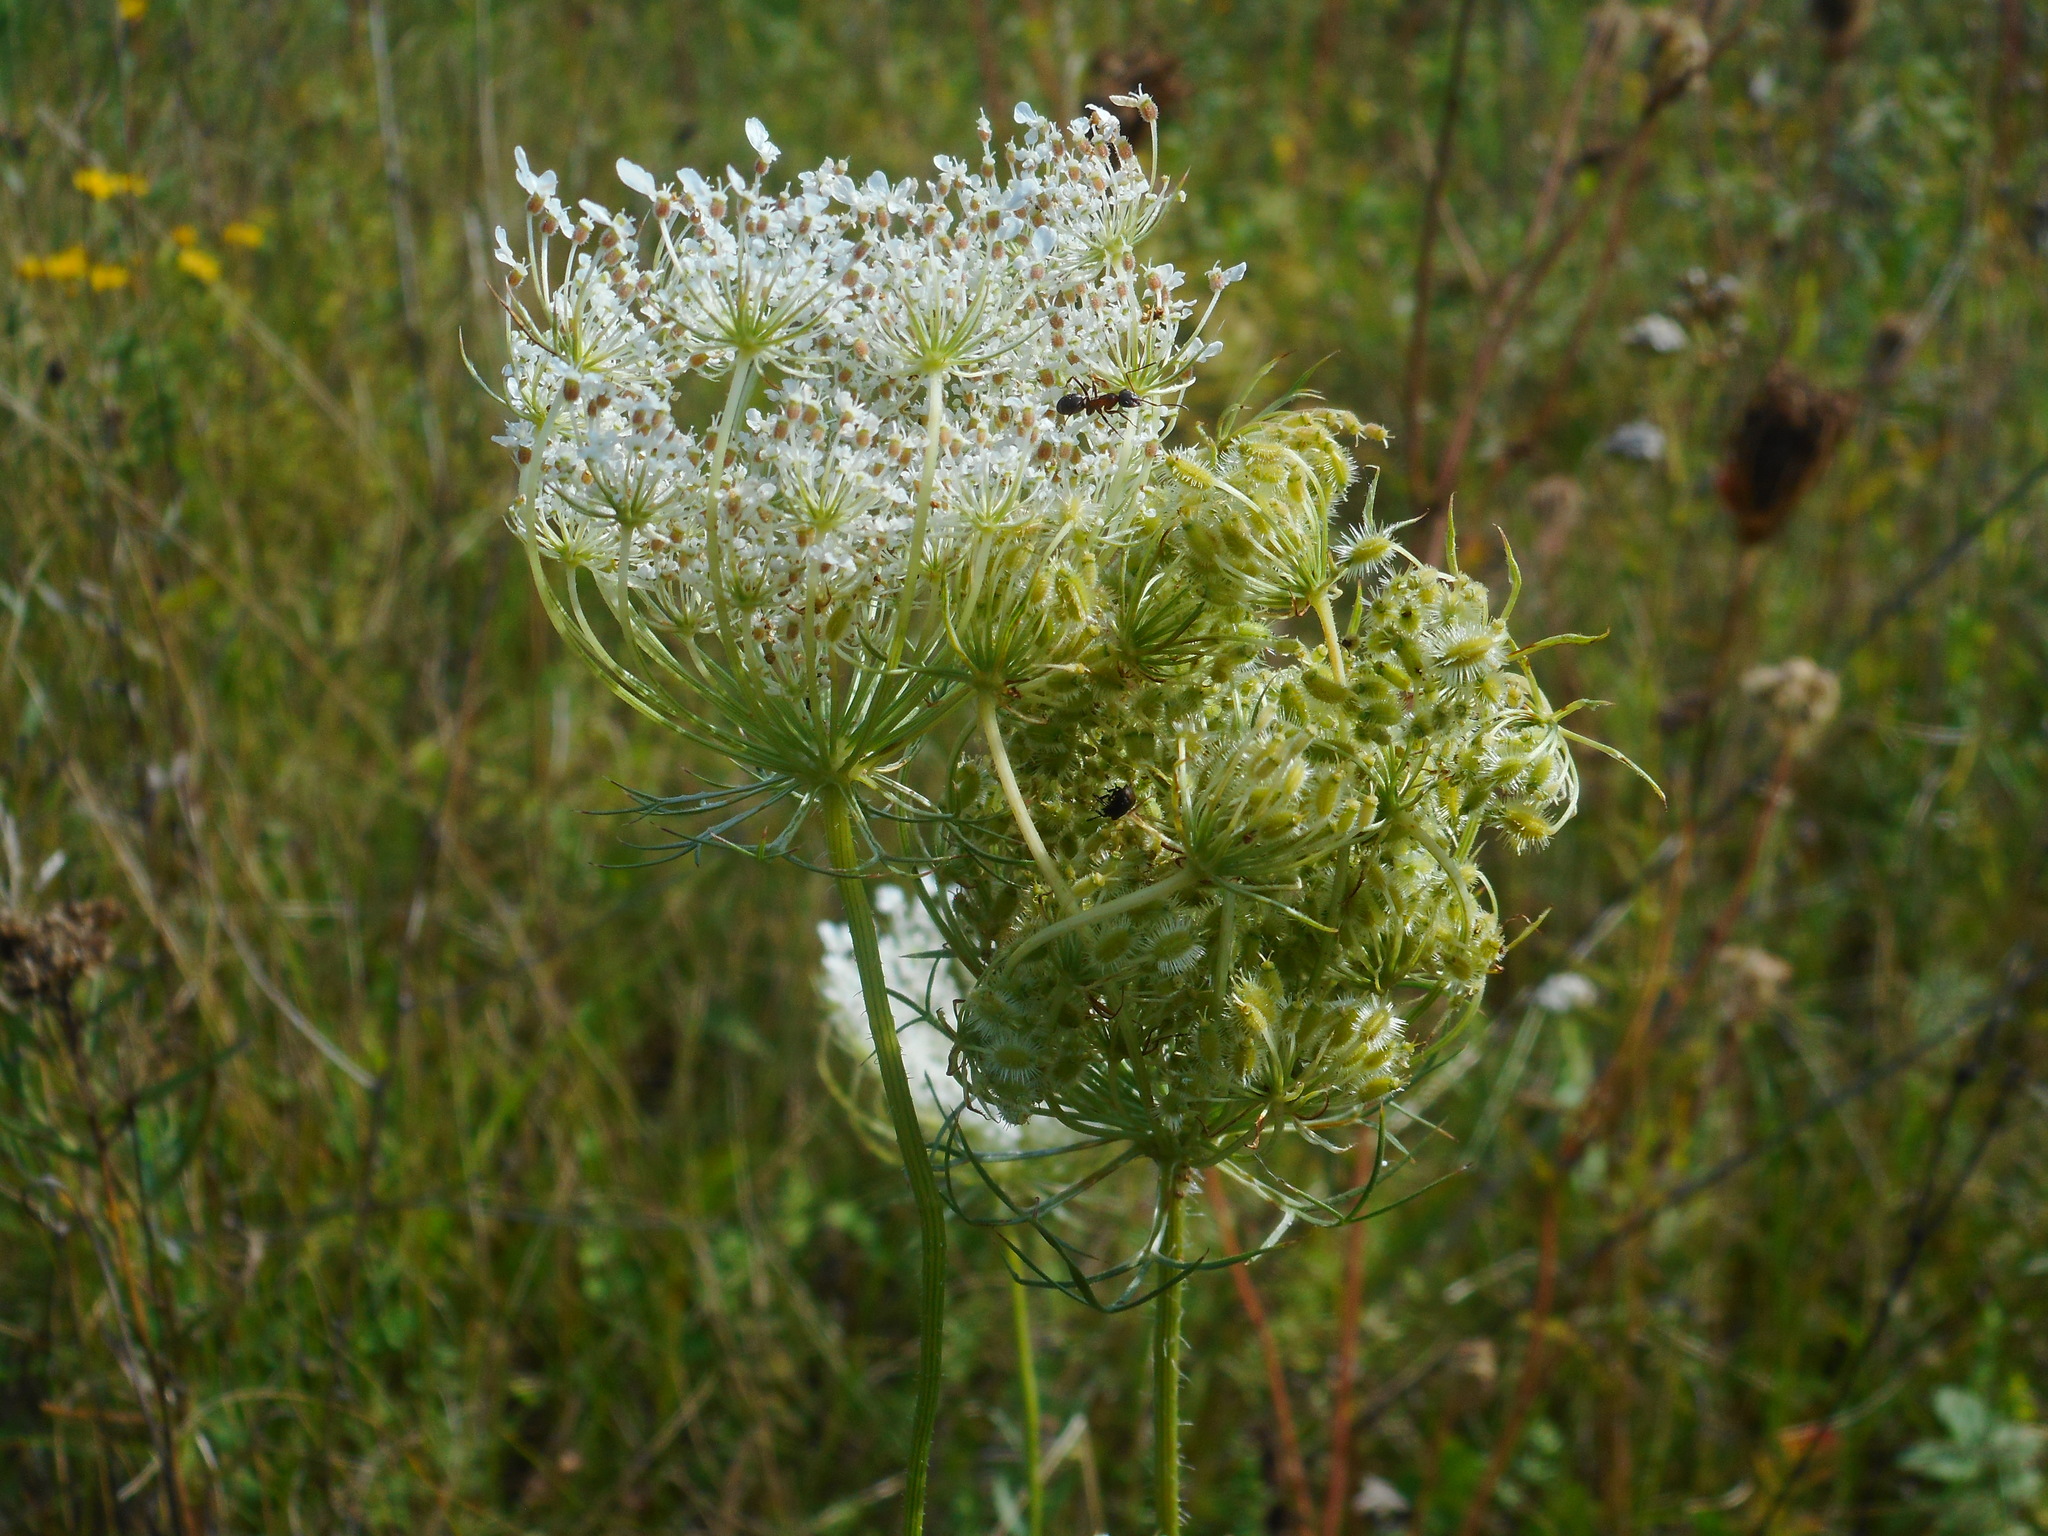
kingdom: Plantae
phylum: Tracheophyta
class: Magnoliopsida
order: Apiales
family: Apiaceae
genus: Daucus
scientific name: Daucus carota
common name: Wild carrot
